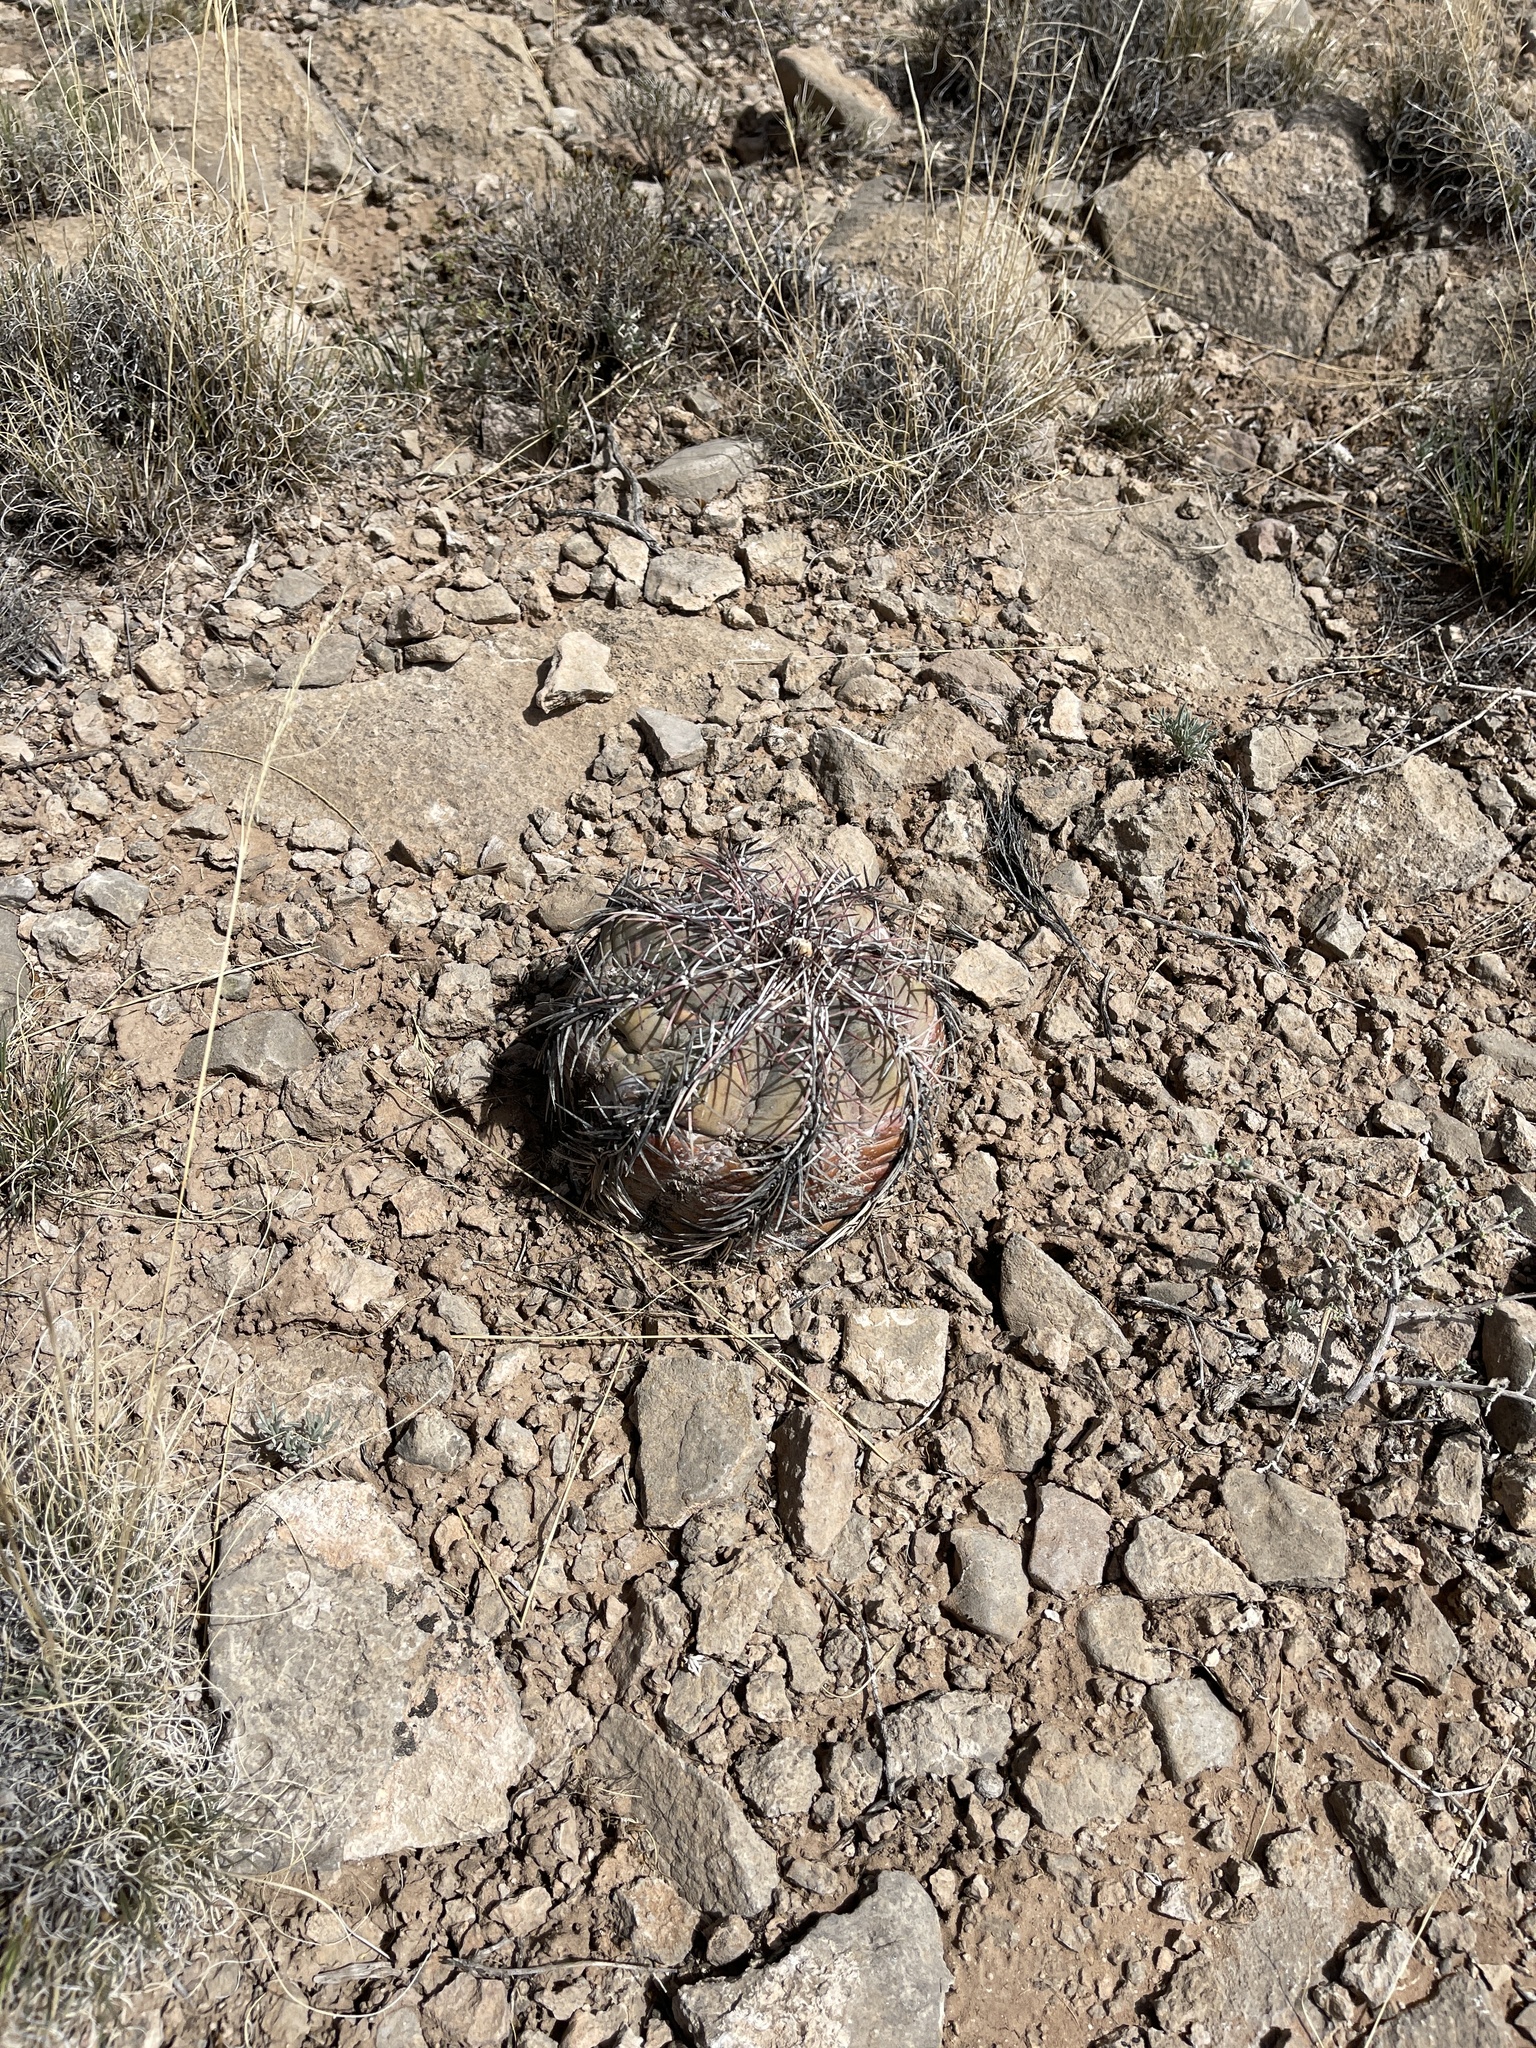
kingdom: Plantae
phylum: Tracheophyta
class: Magnoliopsida
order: Caryophyllales
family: Cactaceae
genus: Echinocactus
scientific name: Echinocactus horizonthalonius
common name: Devilshead
